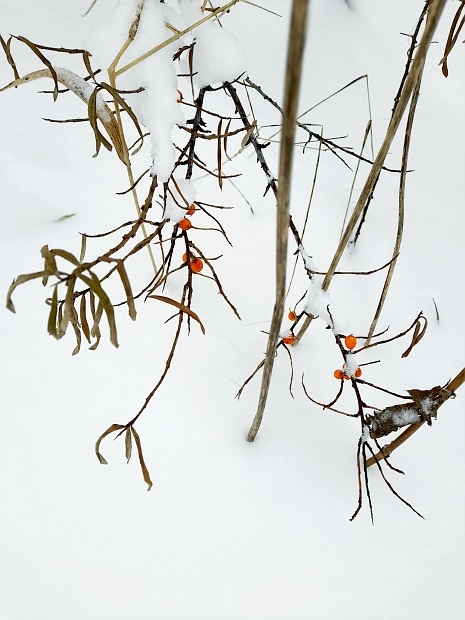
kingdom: Plantae
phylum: Tracheophyta
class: Magnoliopsida
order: Rosales
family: Elaeagnaceae
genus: Hippophae
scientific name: Hippophae rhamnoides
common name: Sea-buckthorn
